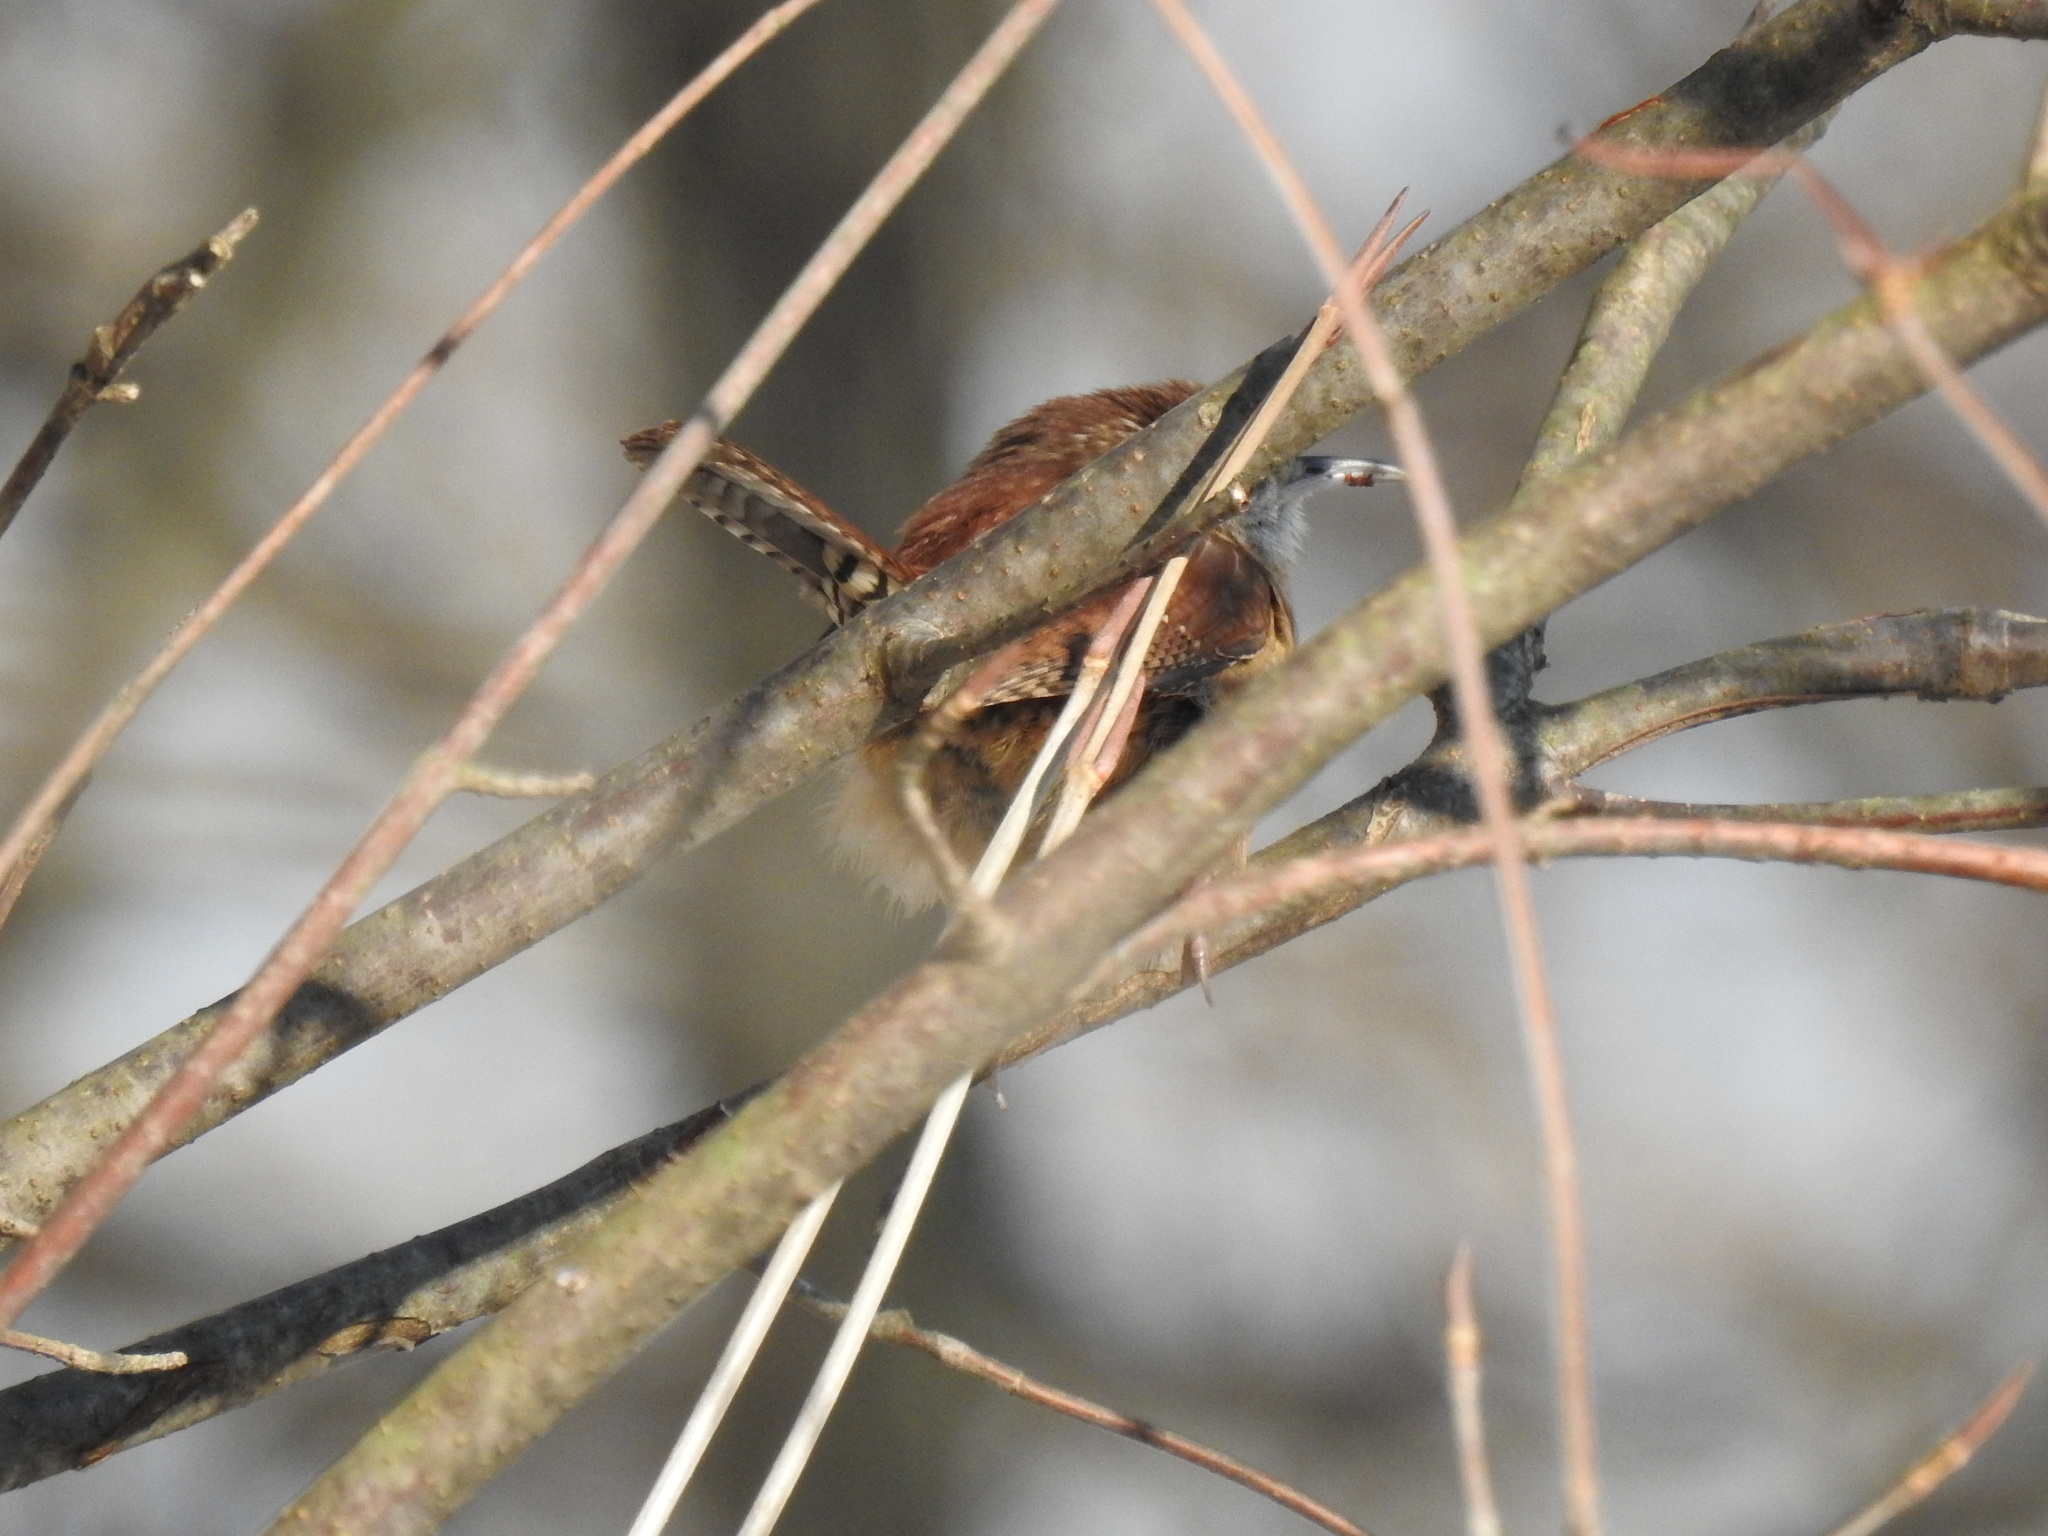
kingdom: Animalia
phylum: Chordata
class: Aves
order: Passeriformes
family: Troglodytidae
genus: Thryothorus
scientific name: Thryothorus ludovicianus
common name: Carolina wren
